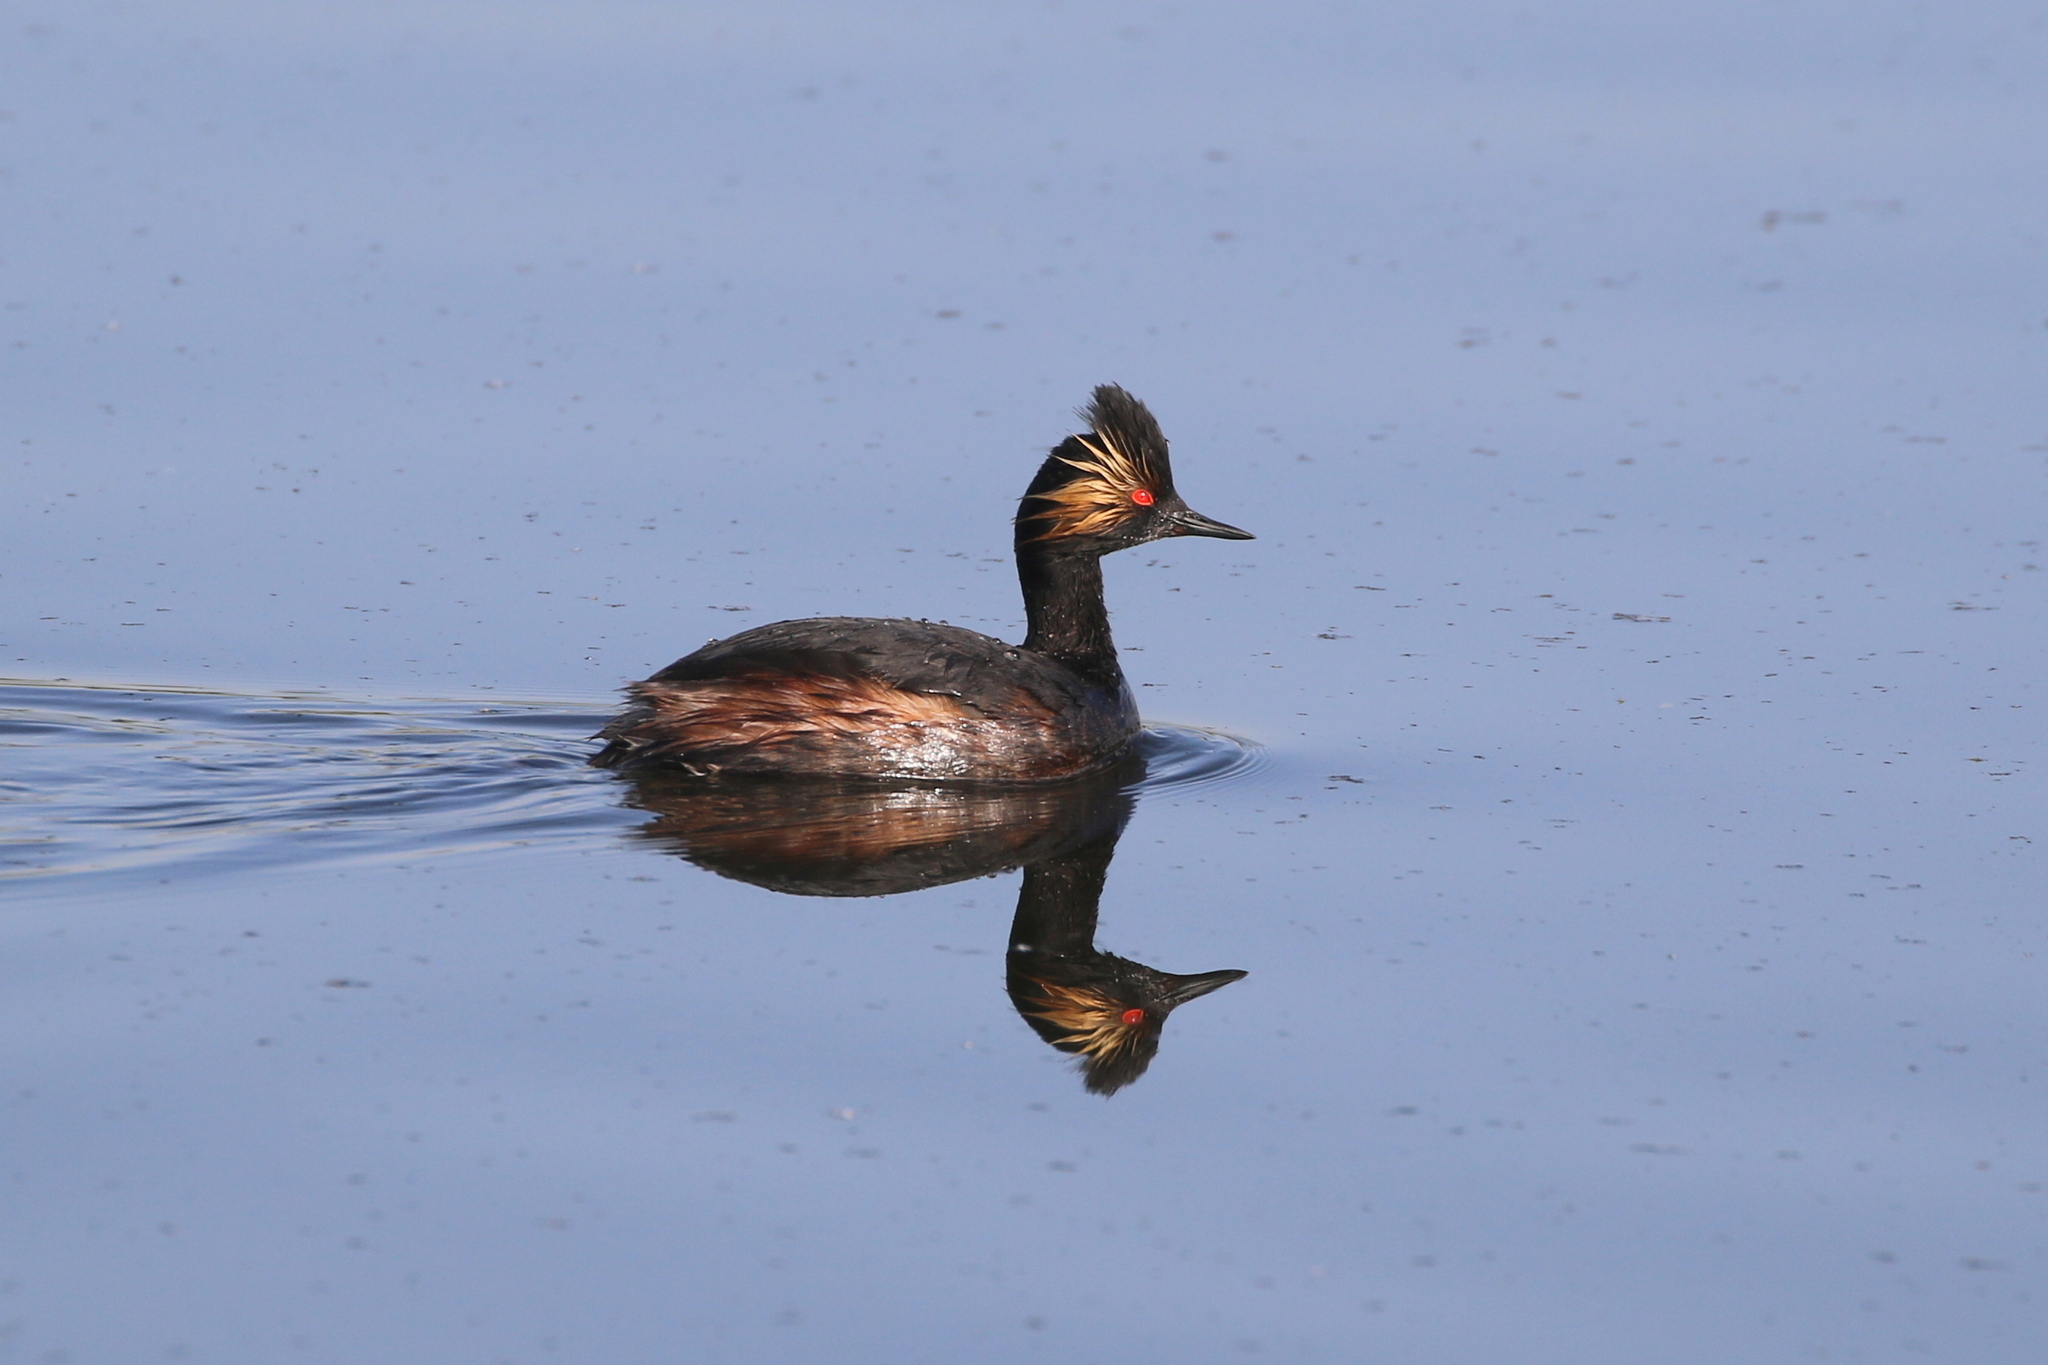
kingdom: Animalia
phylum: Chordata
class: Aves
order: Podicipediformes
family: Podicipedidae
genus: Podiceps
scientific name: Podiceps nigricollis
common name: Black-necked grebe
